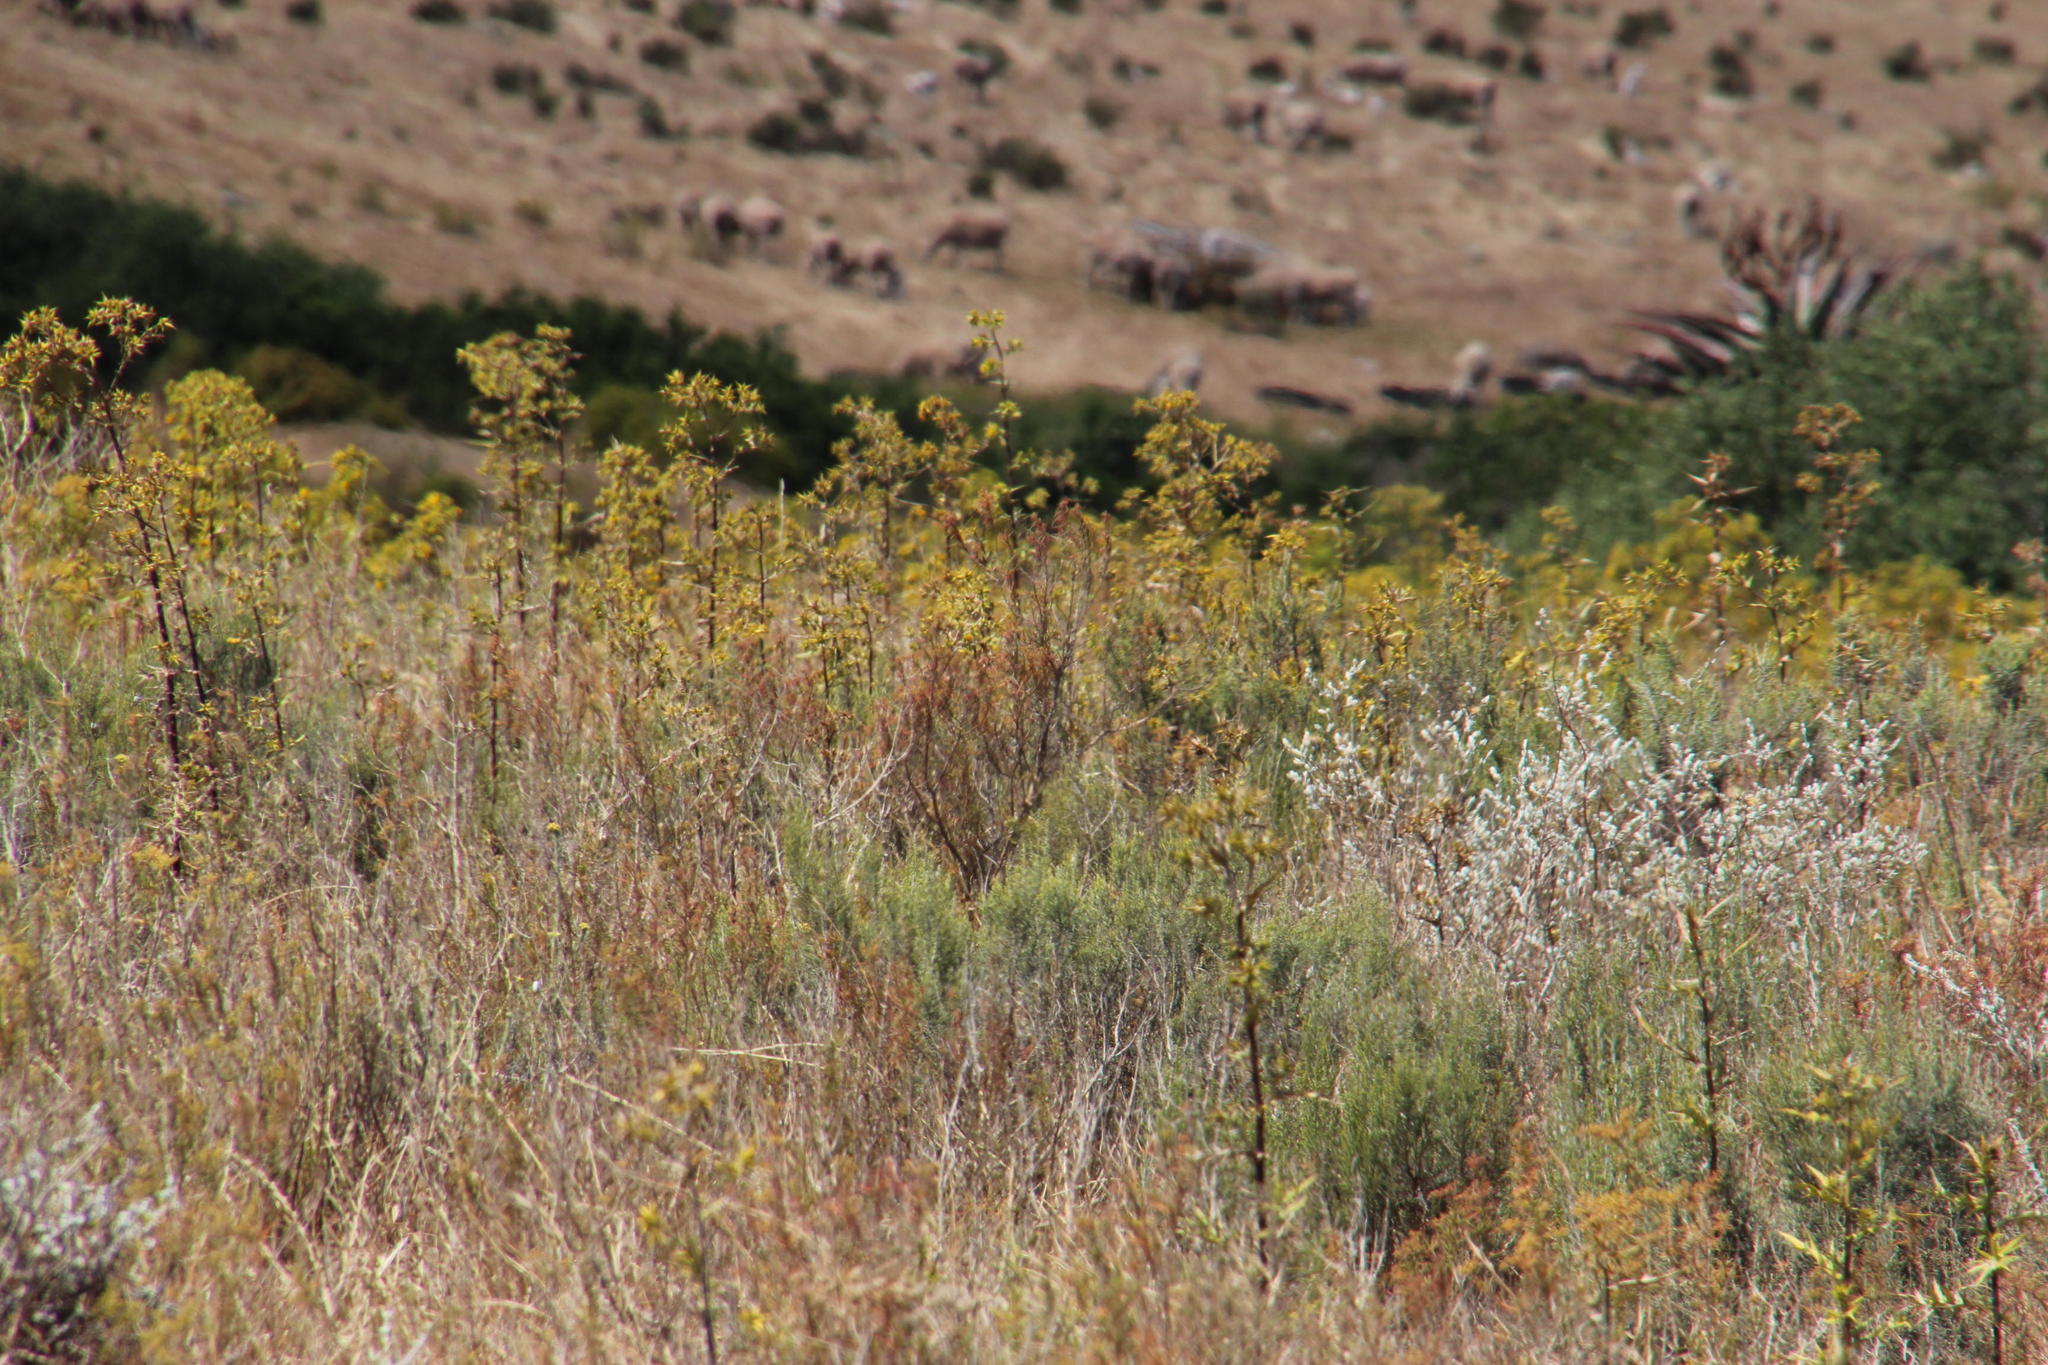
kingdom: Plantae
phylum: Tracheophyta
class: Magnoliopsida
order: Asterales
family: Asteraceae
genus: Berkheya
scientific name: Berkheya rigida
